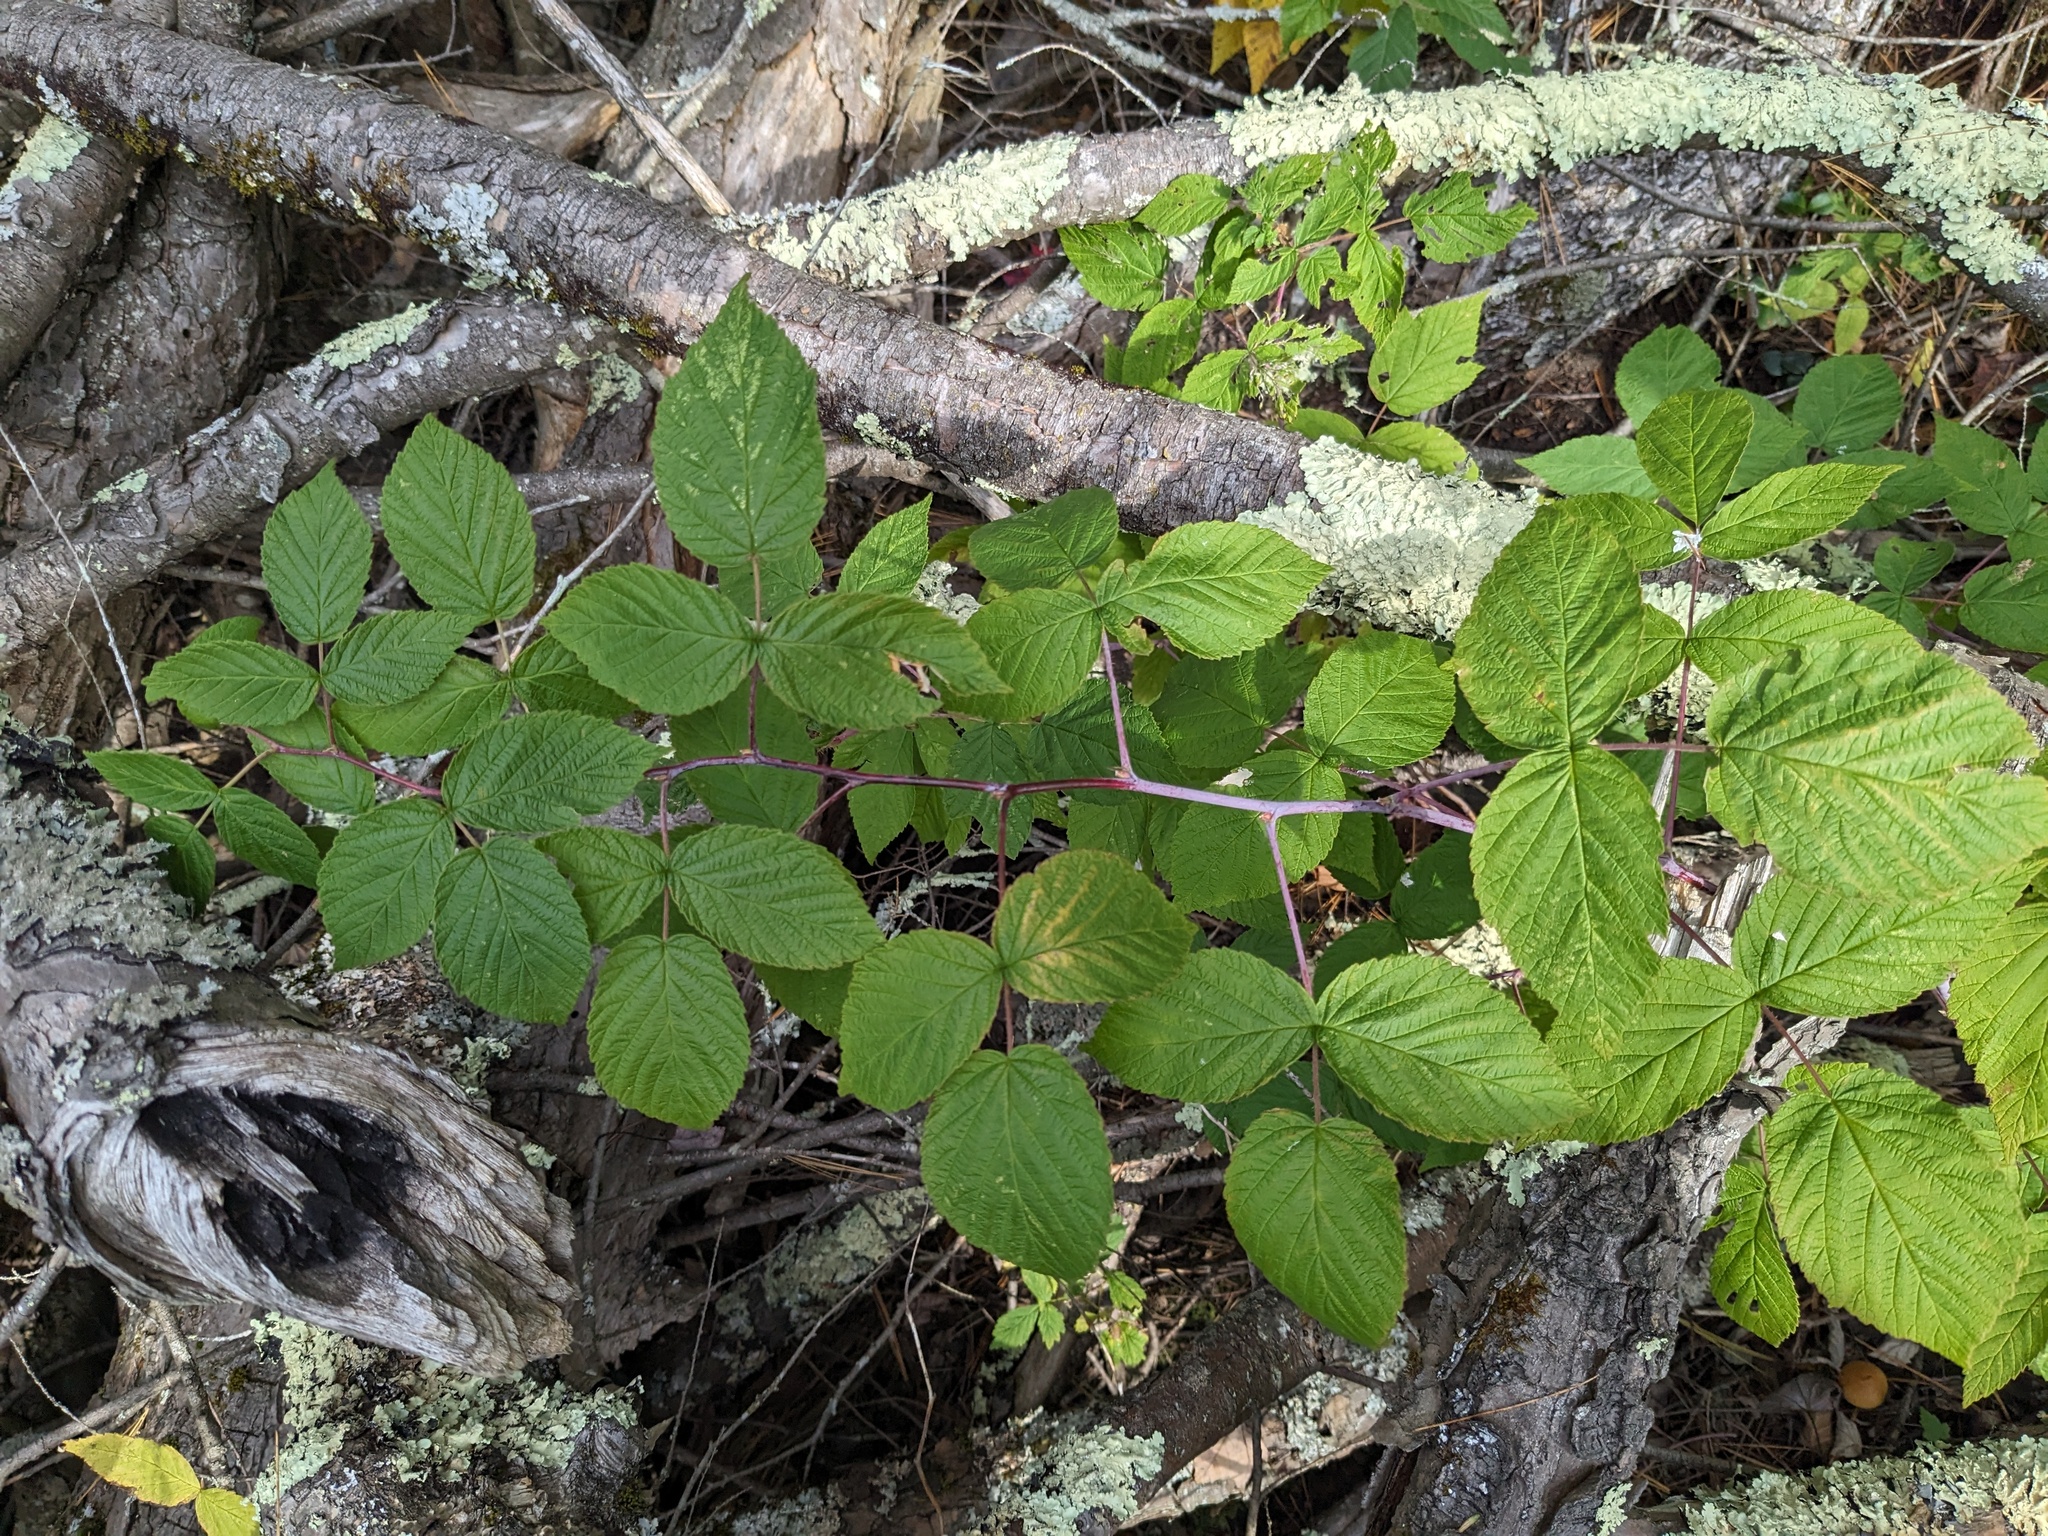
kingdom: Plantae
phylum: Tracheophyta
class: Magnoliopsida
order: Rosales
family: Rosaceae
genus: Rubus
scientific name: Rubus occidentalis
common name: Black raspberry
